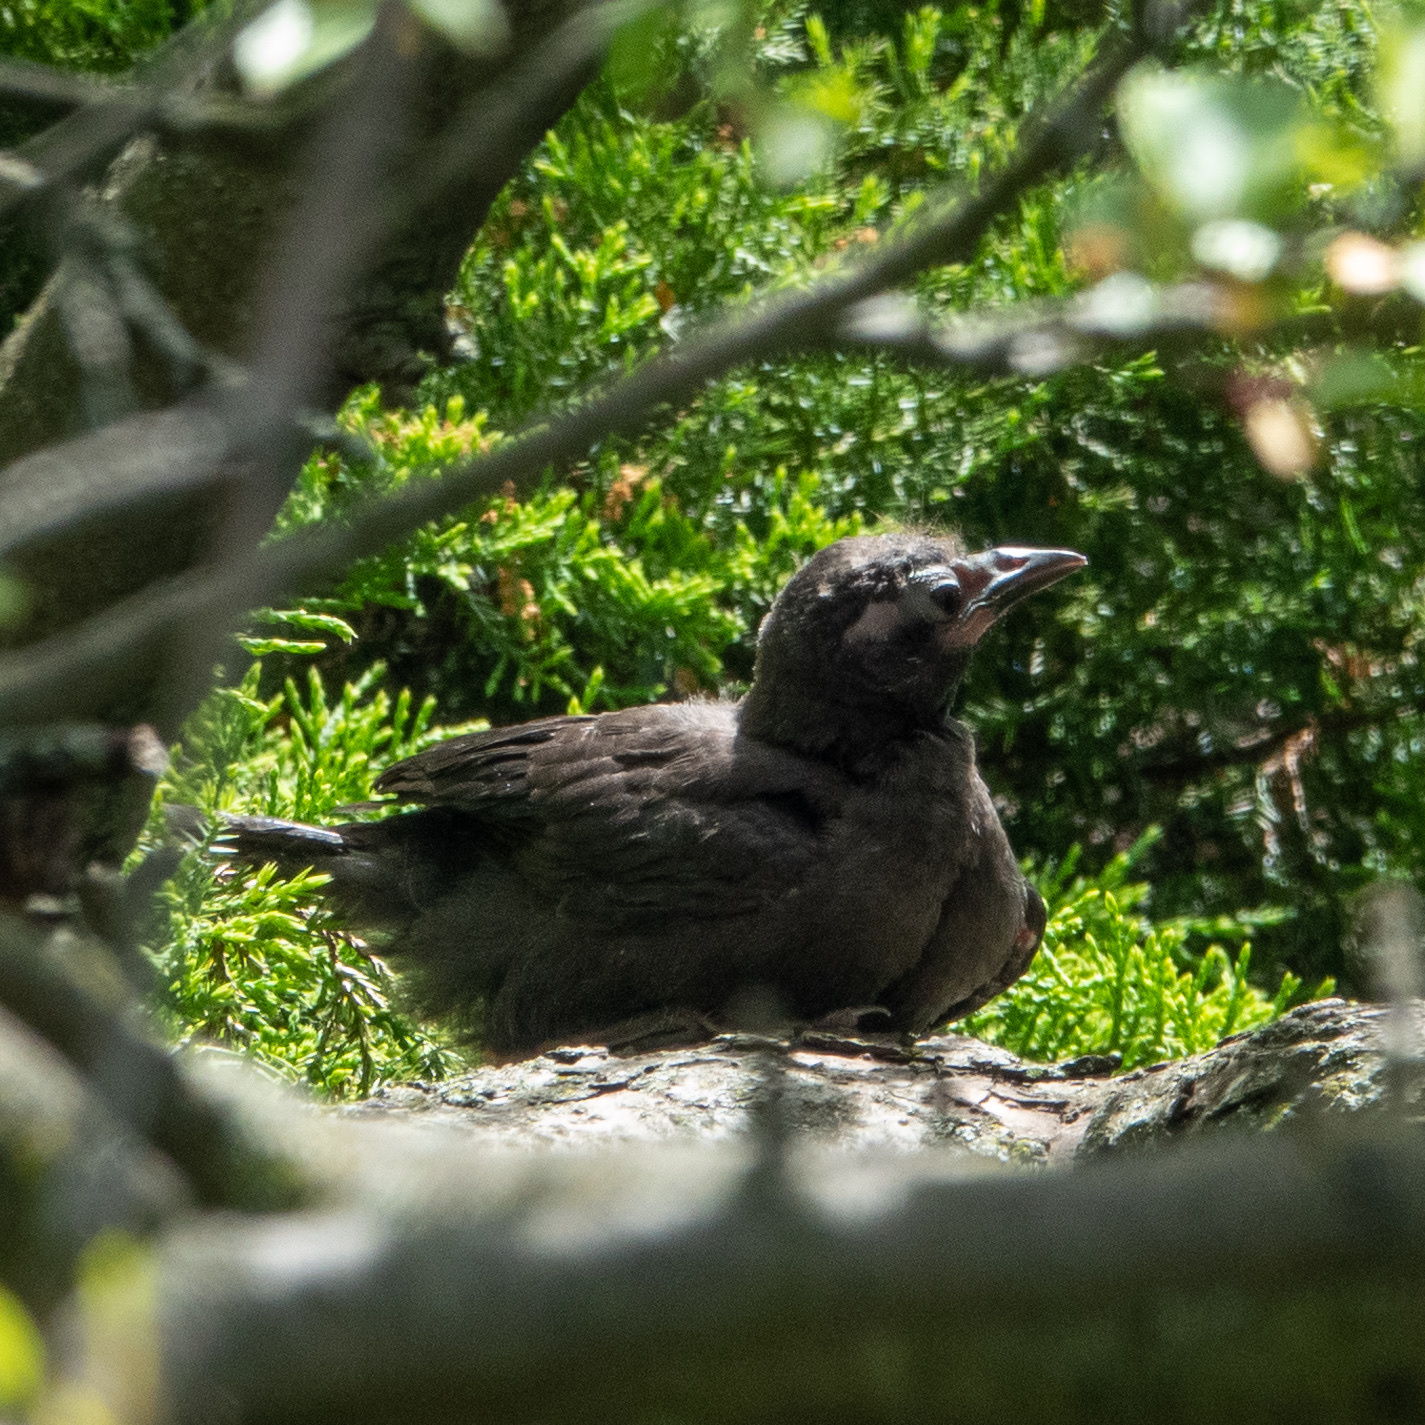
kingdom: Animalia
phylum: Chordata
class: Aves
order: Passeriformes
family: Icteridae
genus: Quiscalus
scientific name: Quiscalus quiscula
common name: Common grackle
